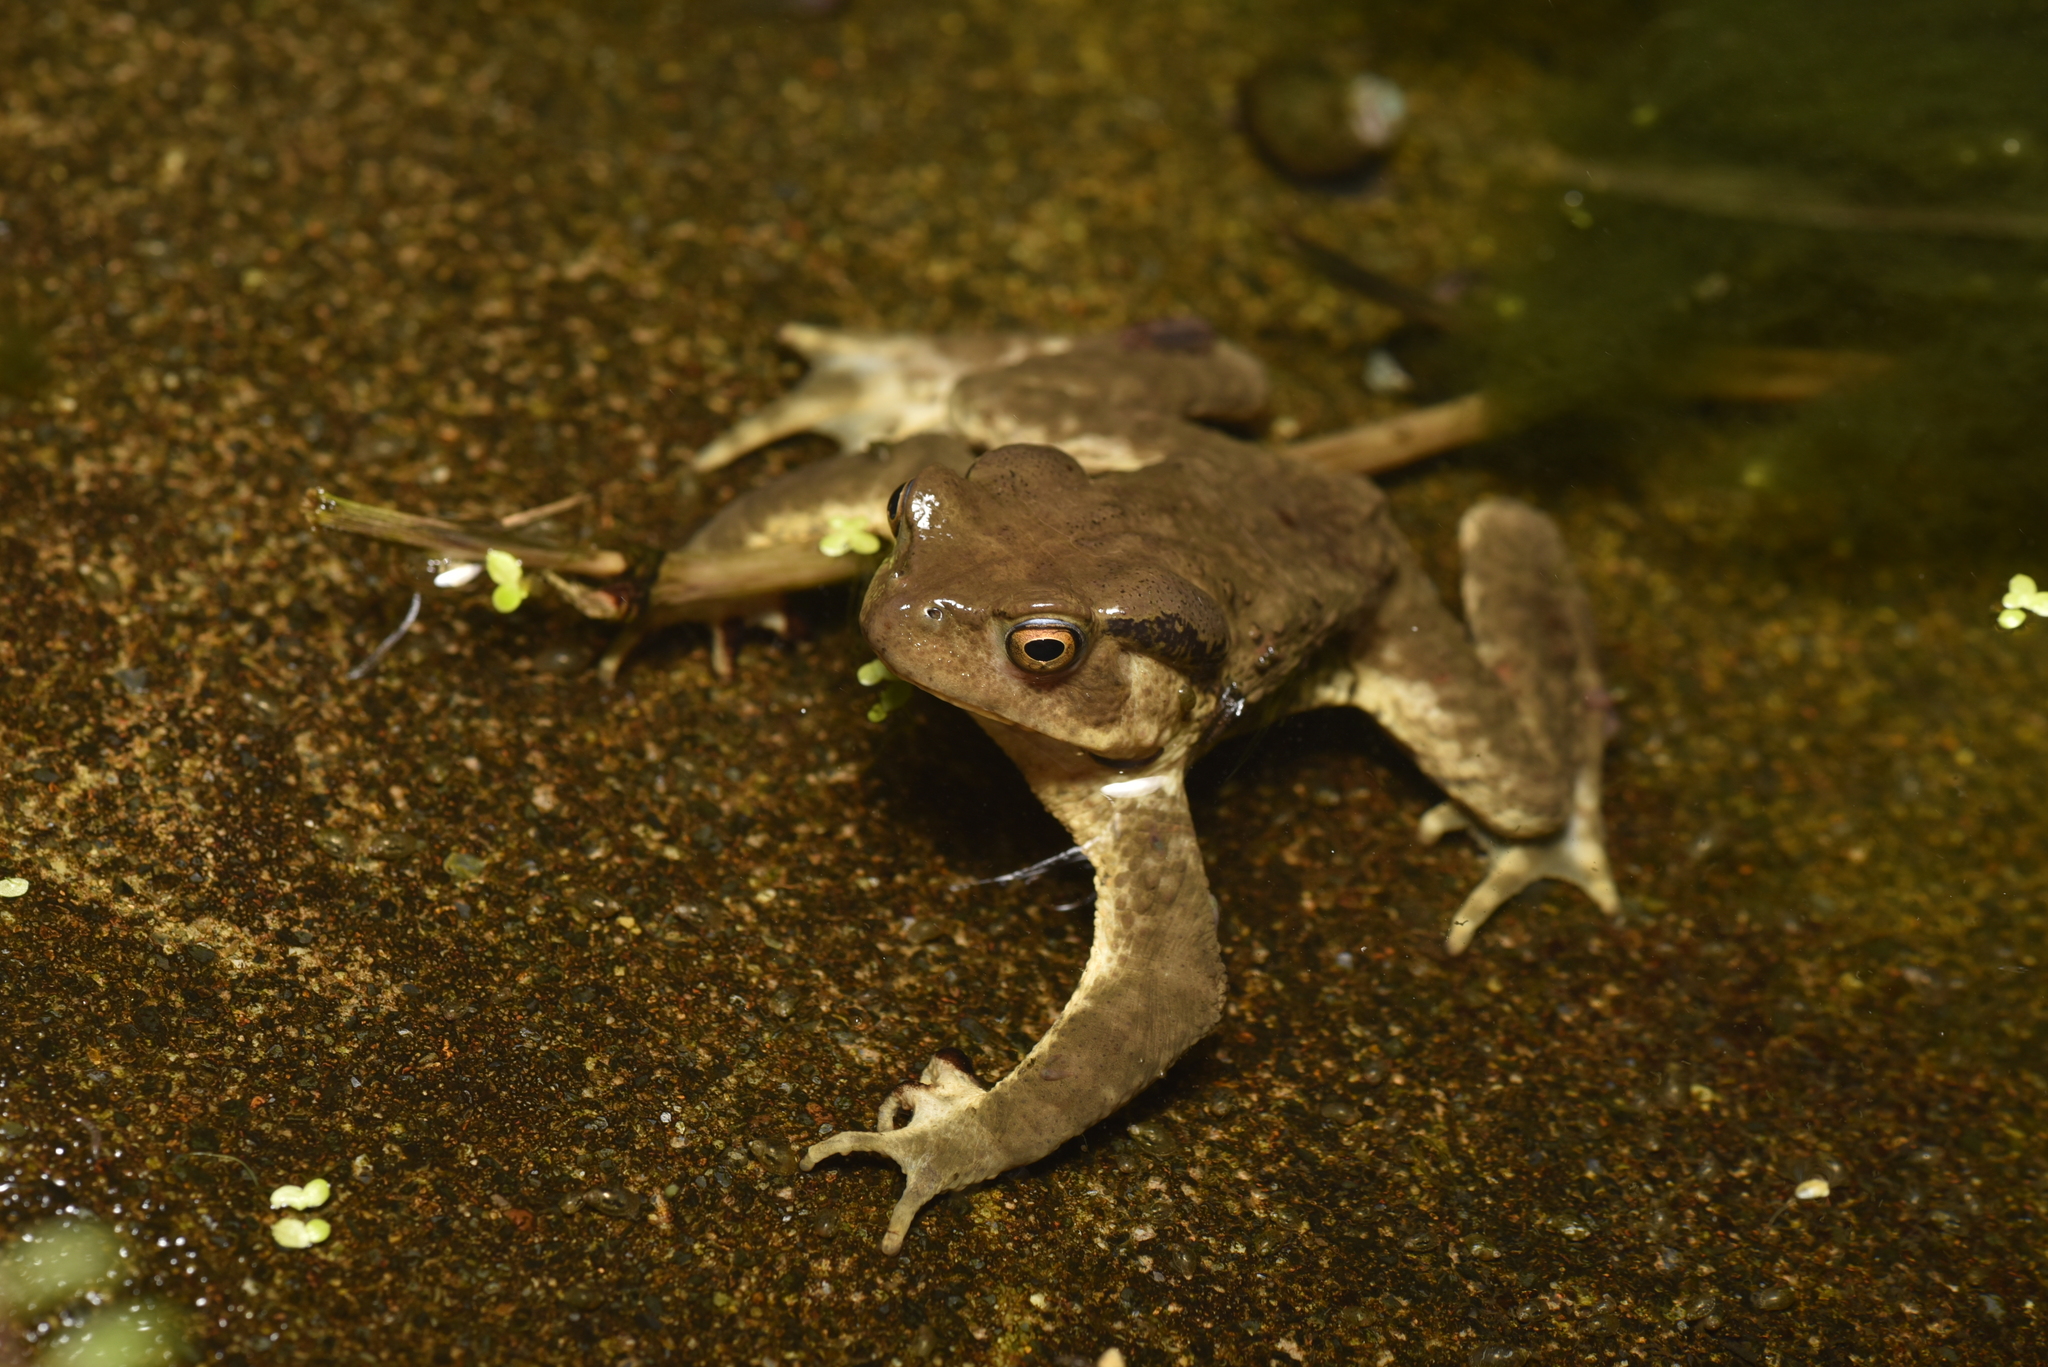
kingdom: Animalia
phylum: Chordata
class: Amphibia
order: Anura
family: Bufonidae
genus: Bufo
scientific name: Bufo bankorensis
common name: Bankor toad
